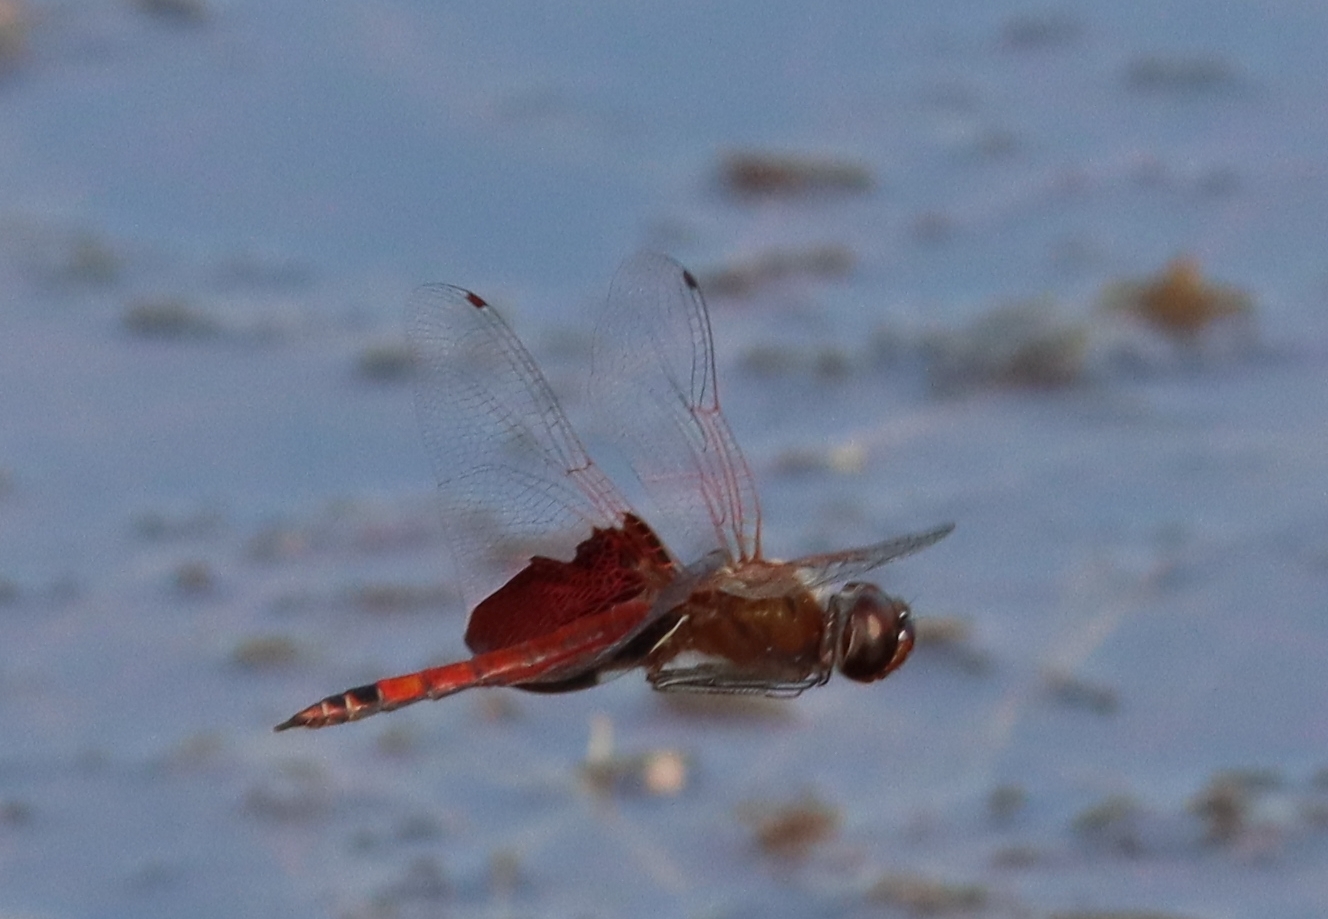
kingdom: Animalia
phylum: Arthropoda
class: Insecta
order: Odonata
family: Libellulidae
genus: Tramea
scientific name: Tramea carolina
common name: Carolina saddlebags
